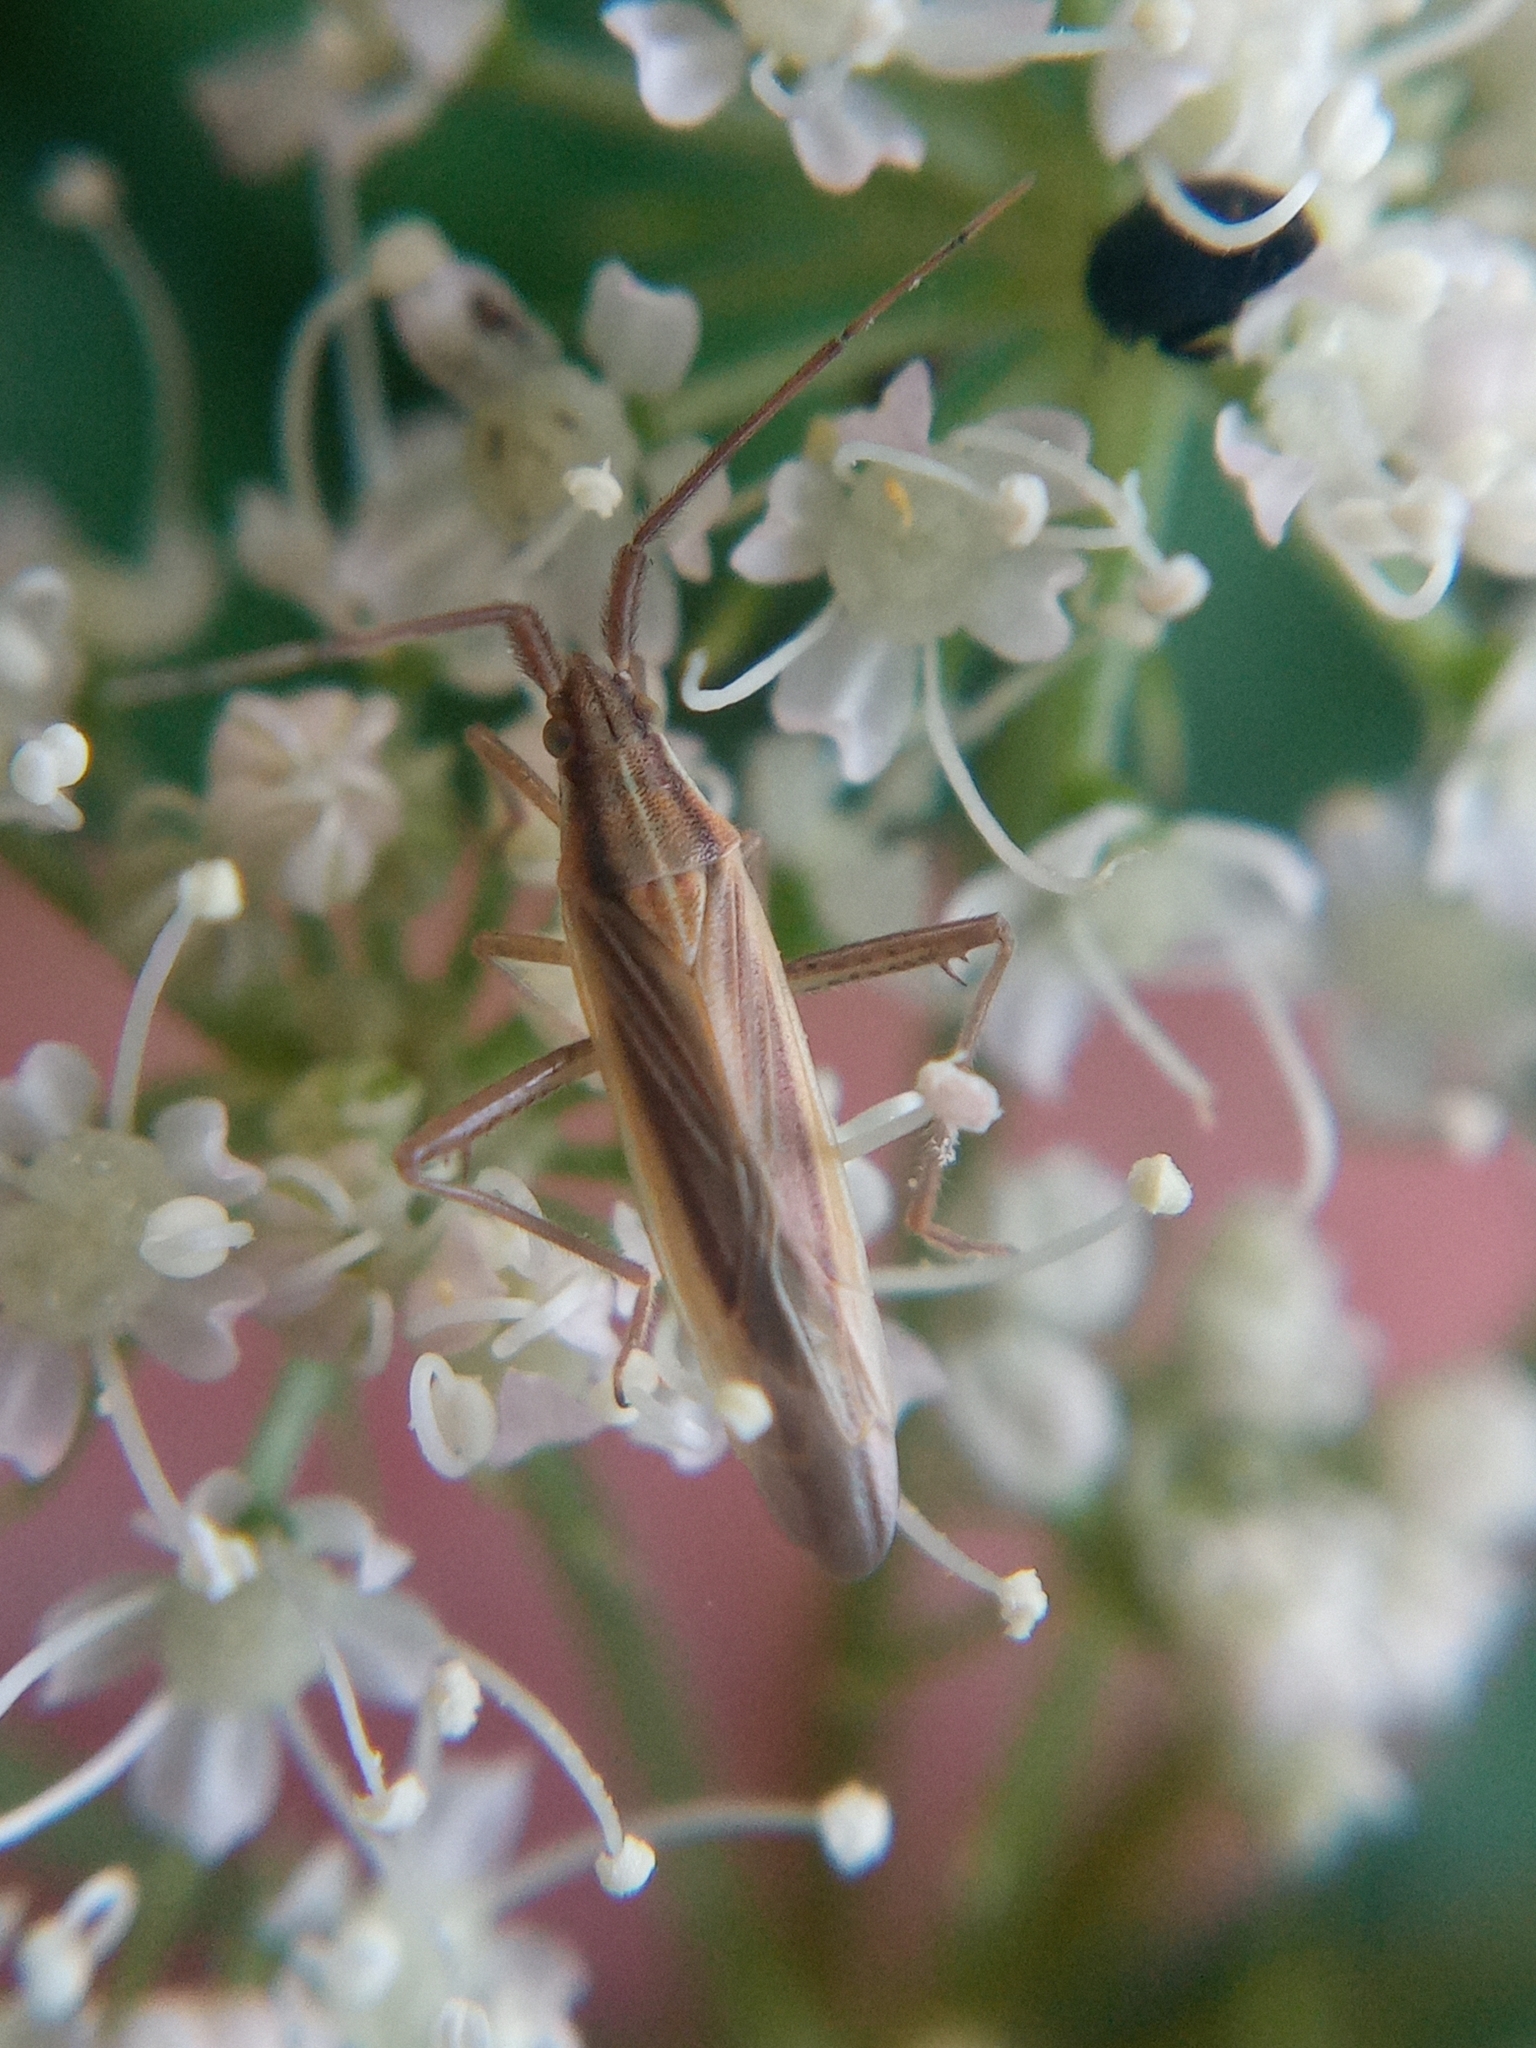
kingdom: Animalia
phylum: Arthropoda
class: Insecta
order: Hemiptera
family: Miridae
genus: Stenodema
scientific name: Stenodema calcarata
